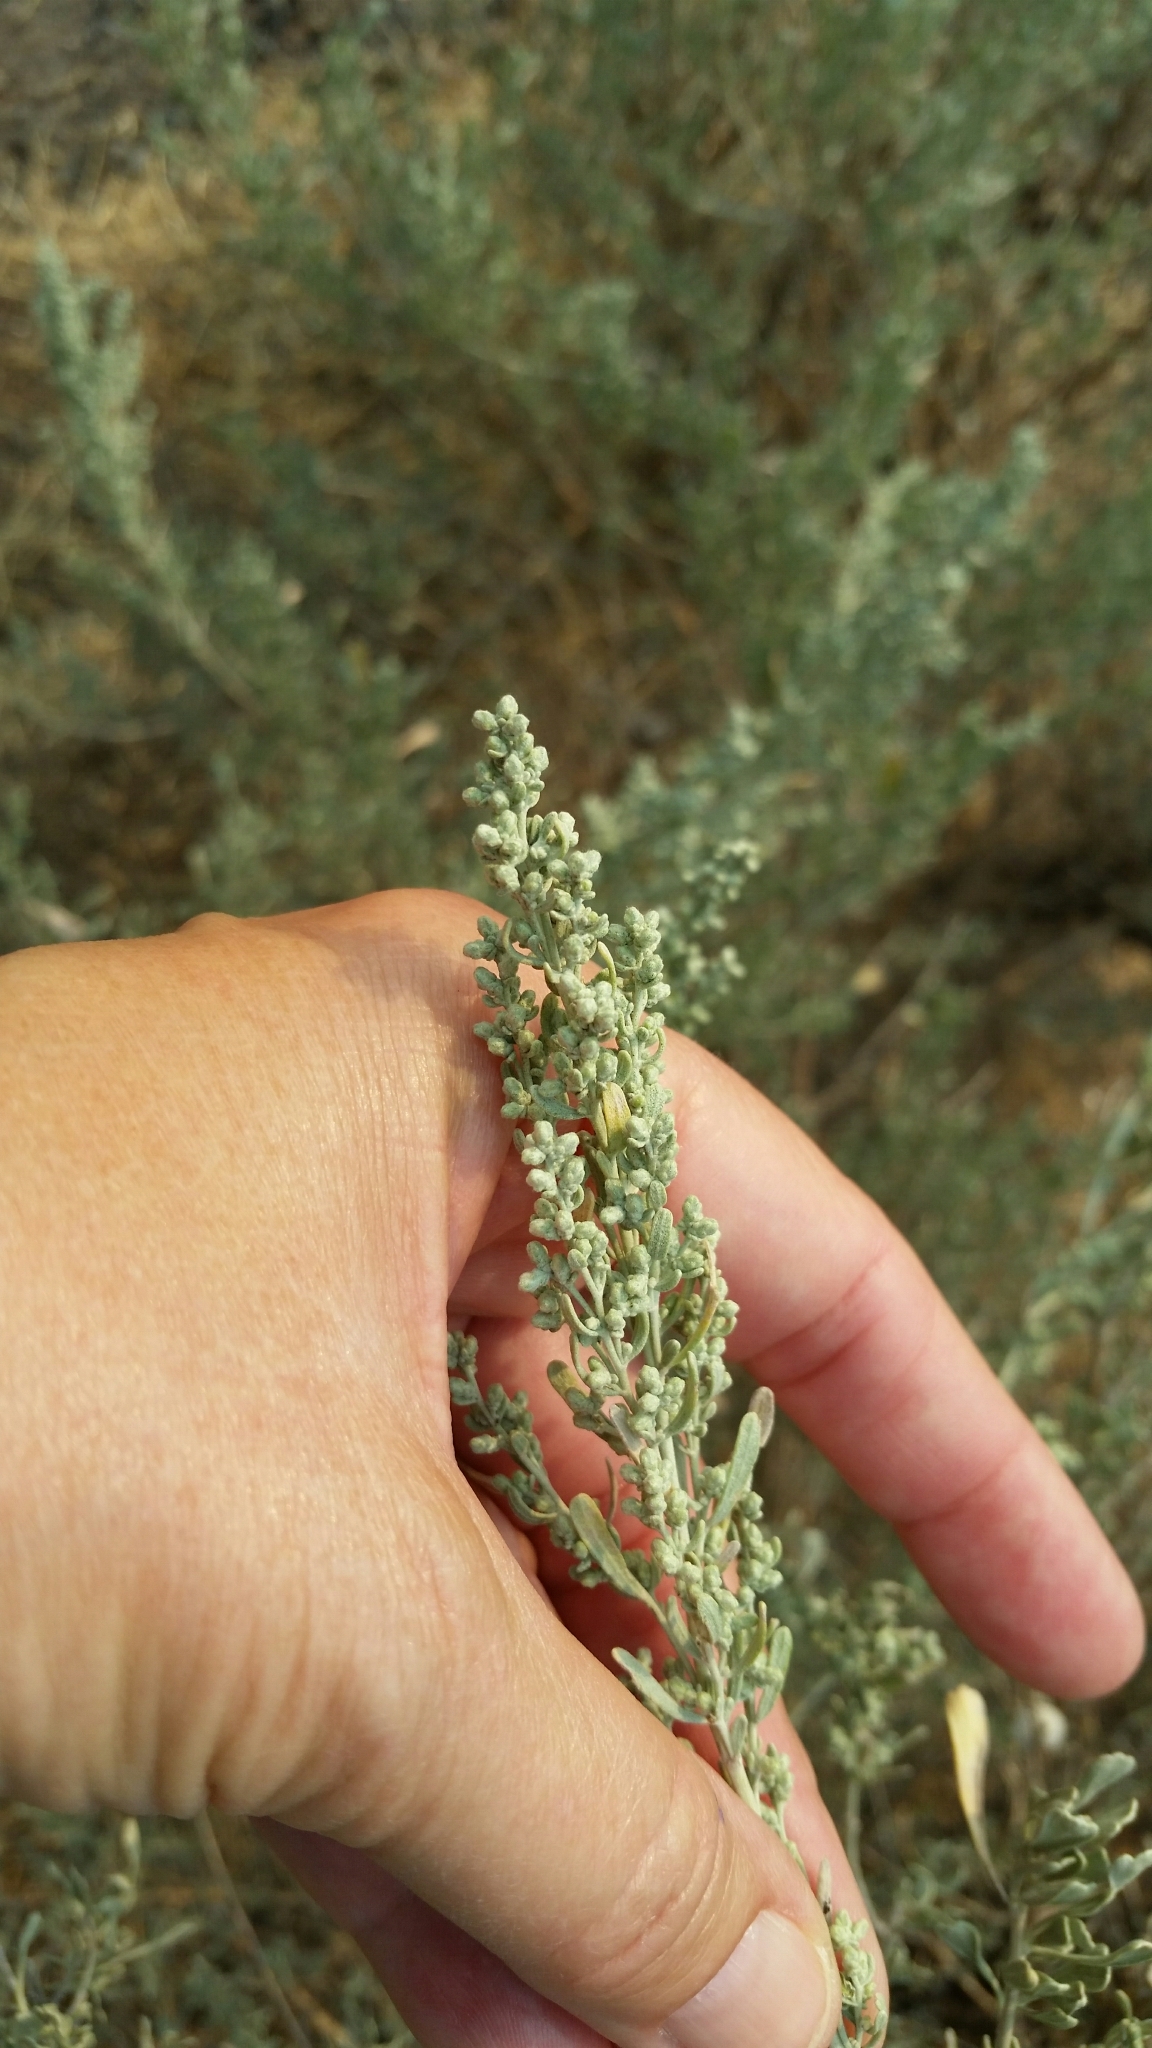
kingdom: Plantae
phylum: Tracheophyta
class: Magnoliopsida
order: Asterales
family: Asteraceae
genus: Artemisia
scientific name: Artemisia tridentata
